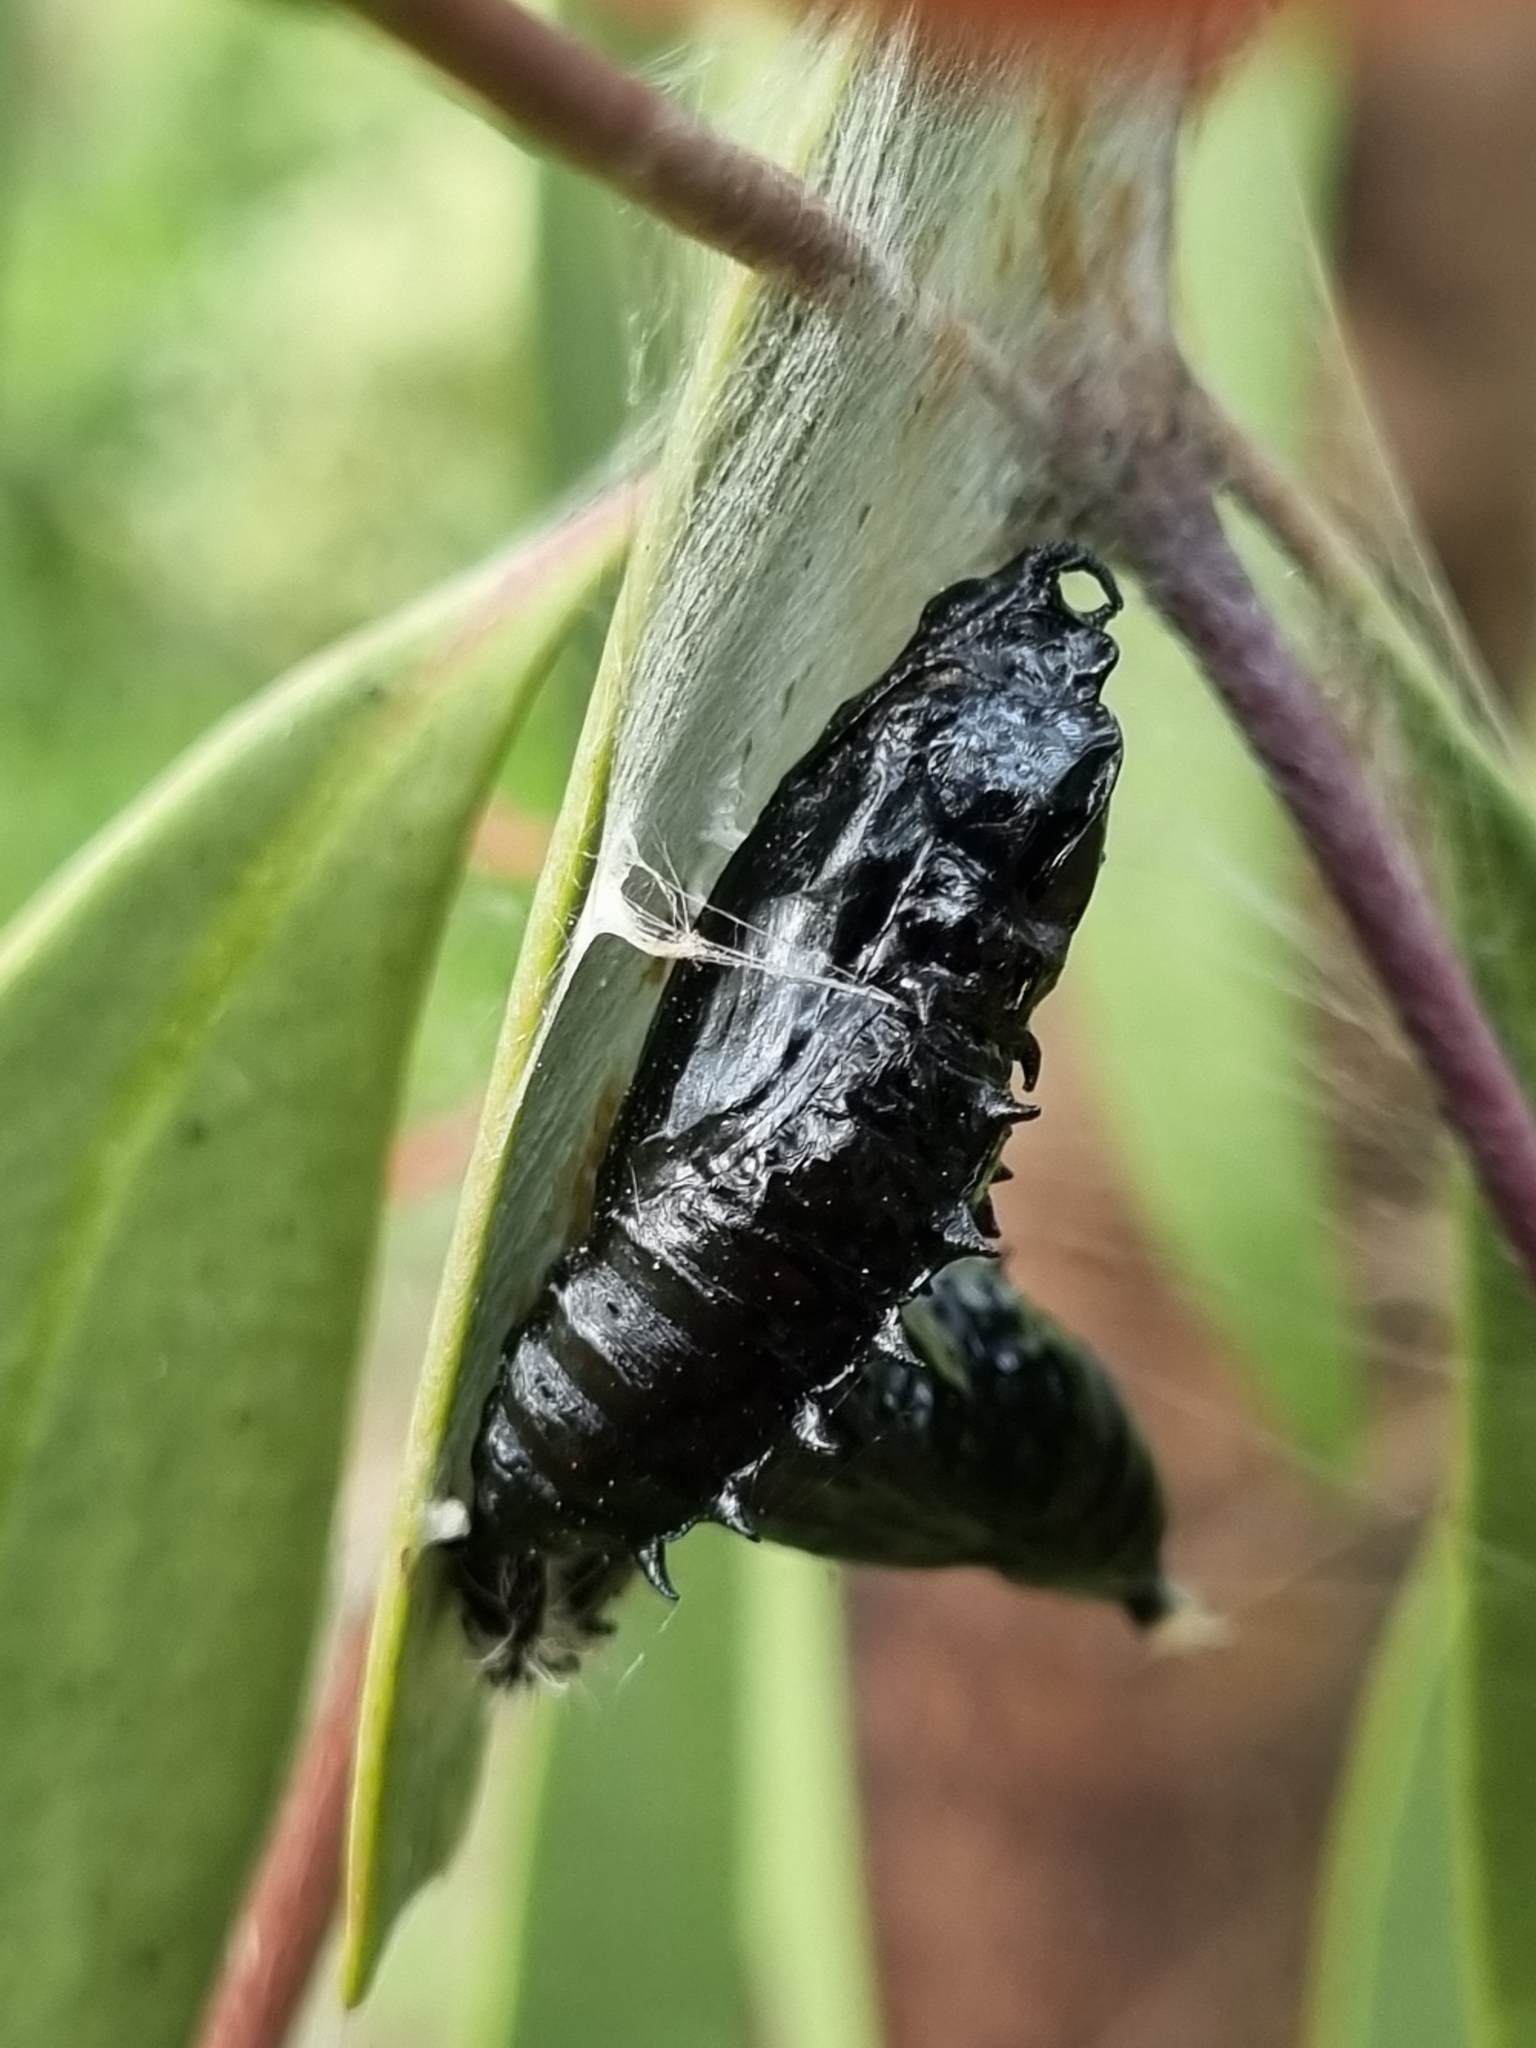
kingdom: Animalia
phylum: Arthropoda
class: Insecta
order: Lepidoptera
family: Pieridae
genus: Delias
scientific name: Delias harpalyce
